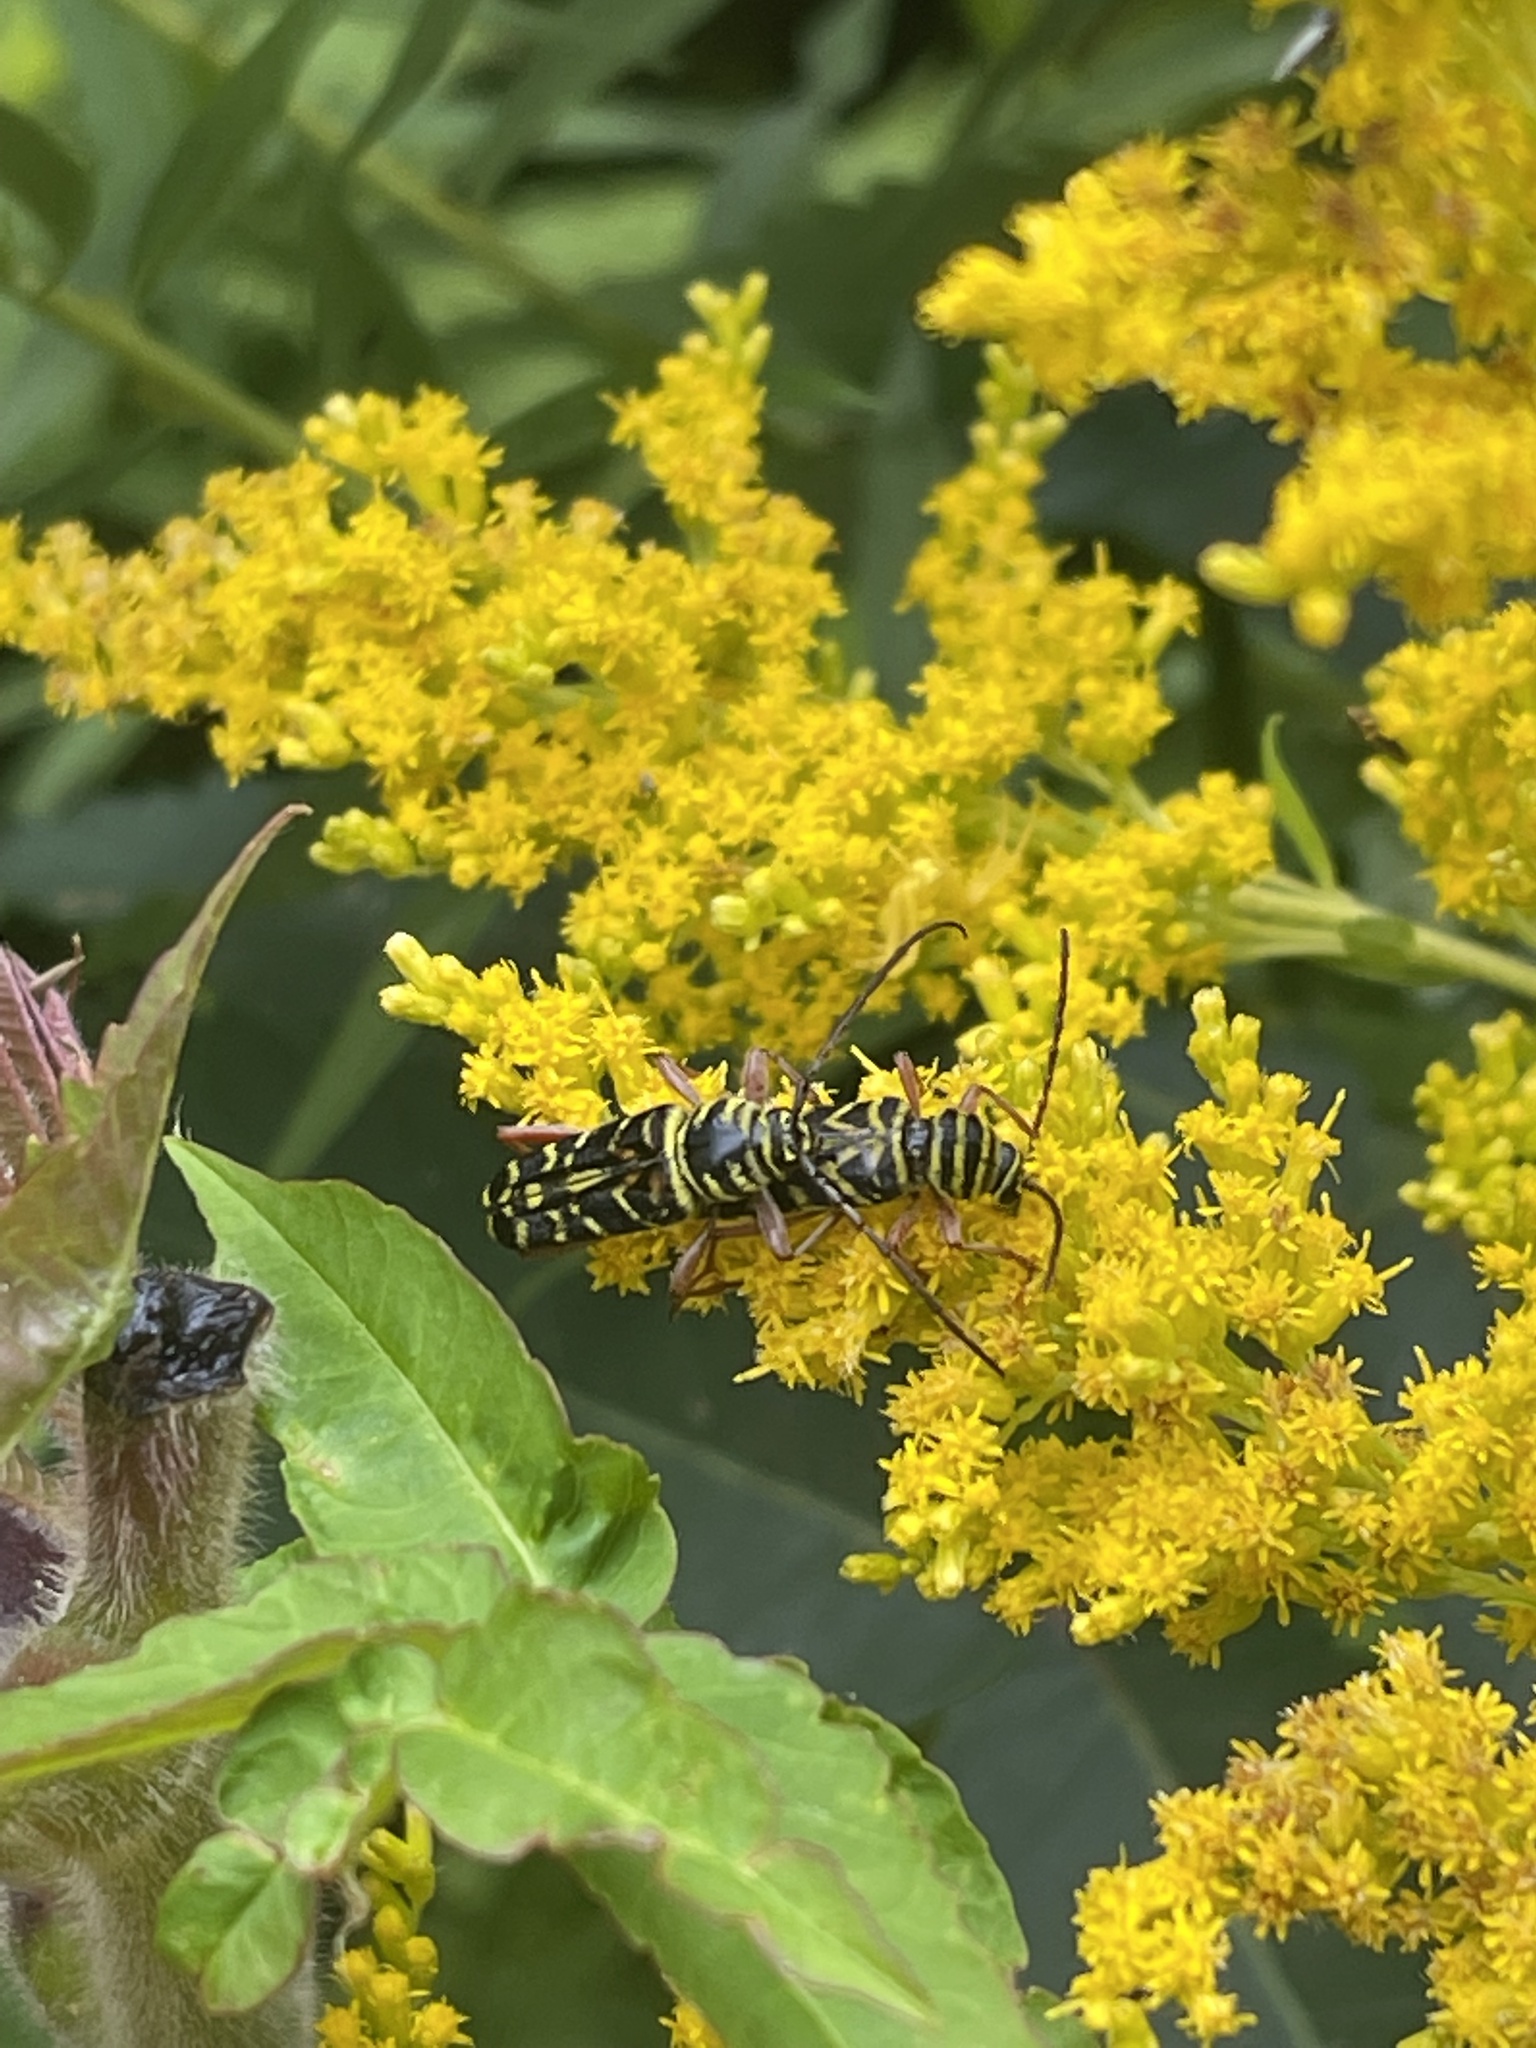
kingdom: Animalia
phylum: Arthropoda
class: Insecta
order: Coleoptera
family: Cerambycidae
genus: Megacyllene
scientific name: Megacyllene robiniae
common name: Locust borer
